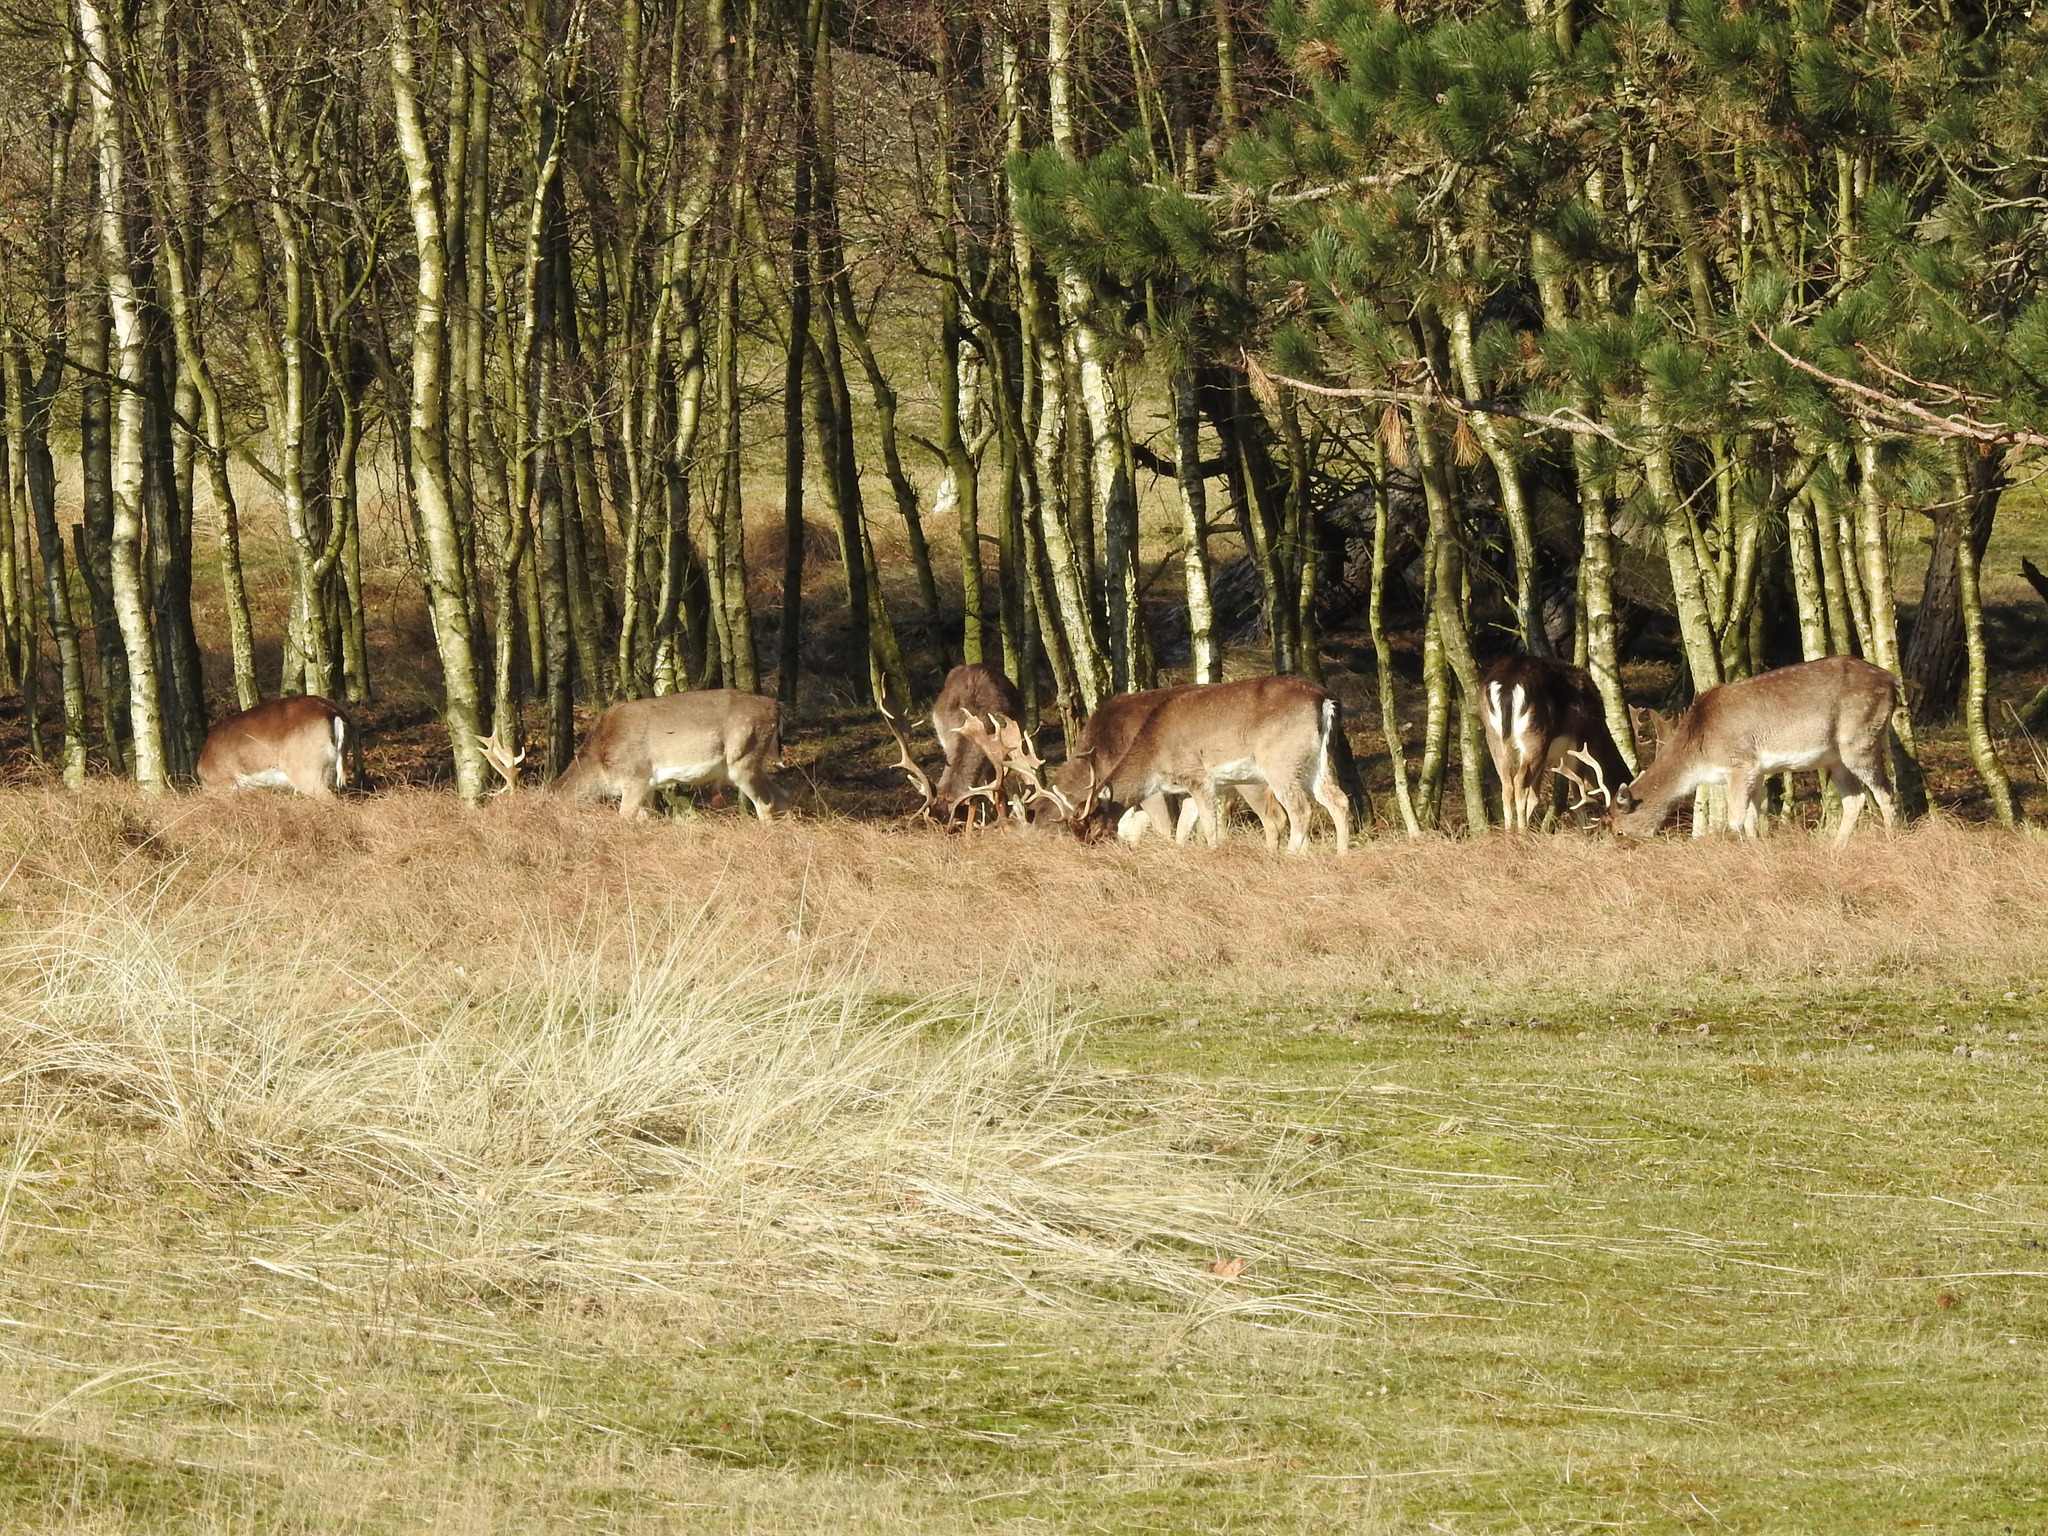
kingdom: Animalia
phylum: Chordata
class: Mammalia
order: Artiodactyla
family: Cervidae
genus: Dama
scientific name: Dama dama
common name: Fallow deer
